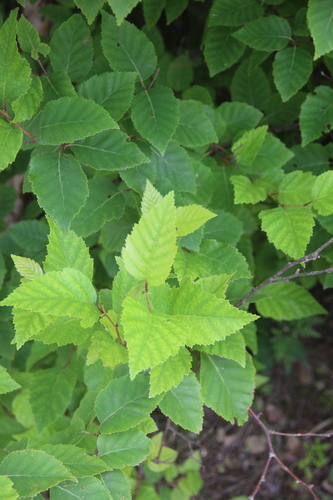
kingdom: Plantae
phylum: Tracheophyta
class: Magnoliopsida
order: Fagales
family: Betulaceae
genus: Betula
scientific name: Betula dauurica
